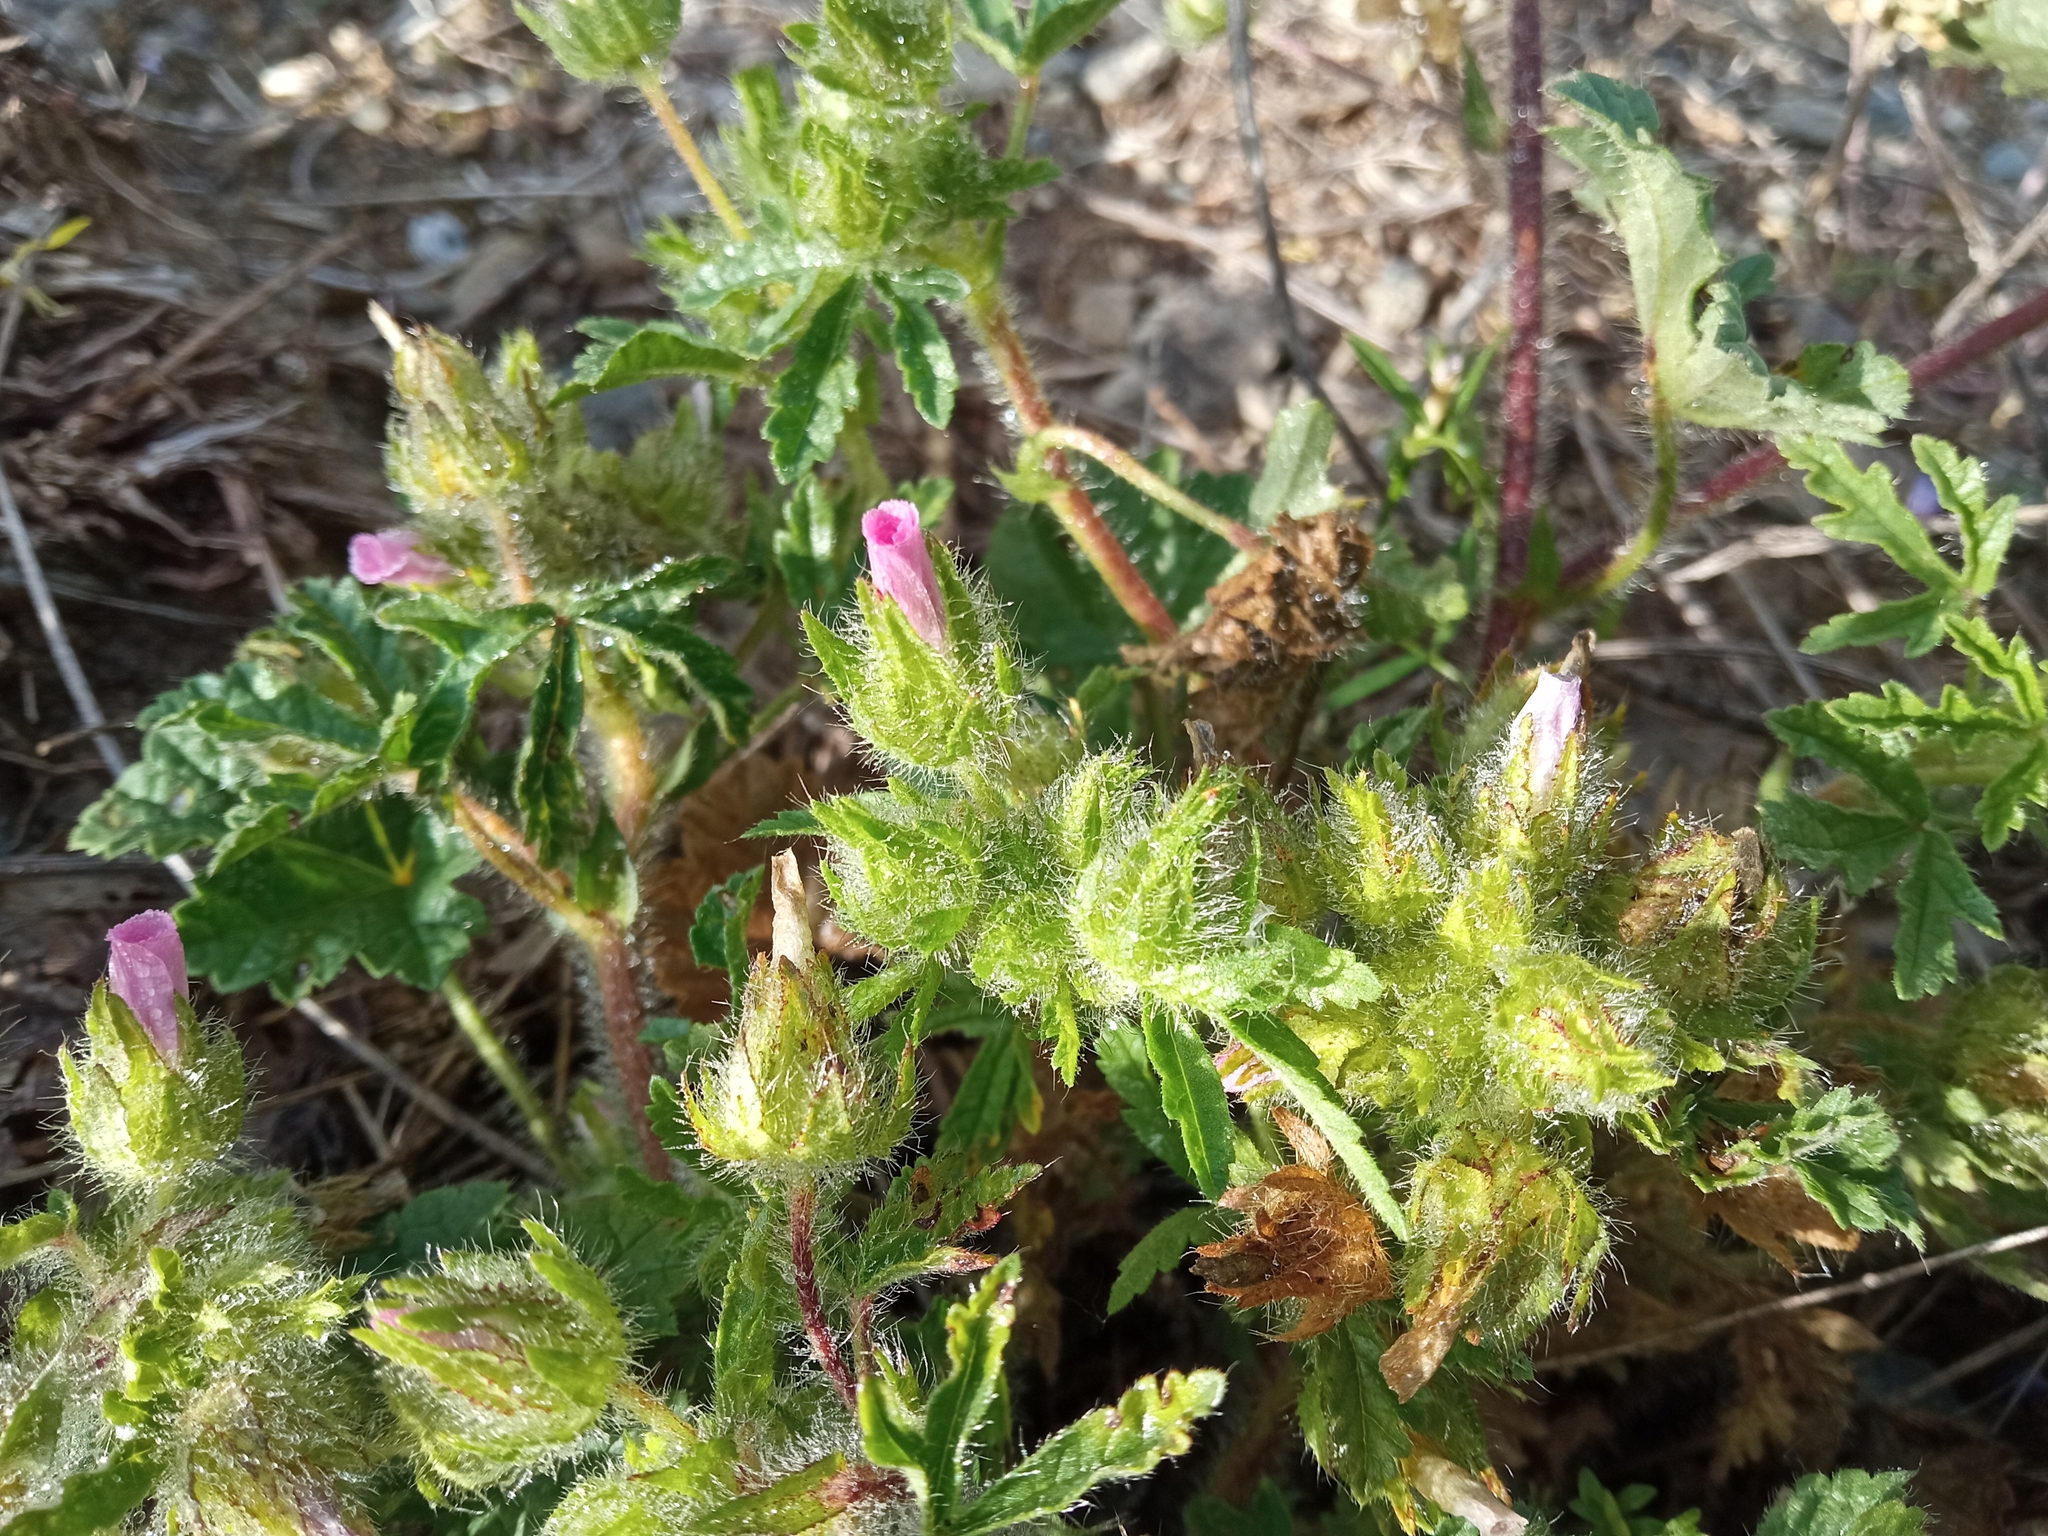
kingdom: Plantae
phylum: Tracheophyta
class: Magnoliopsida
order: Malvales
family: Malvaceae
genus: Althaea
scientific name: Althaea hirsuta
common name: Rough marsh-mallow
